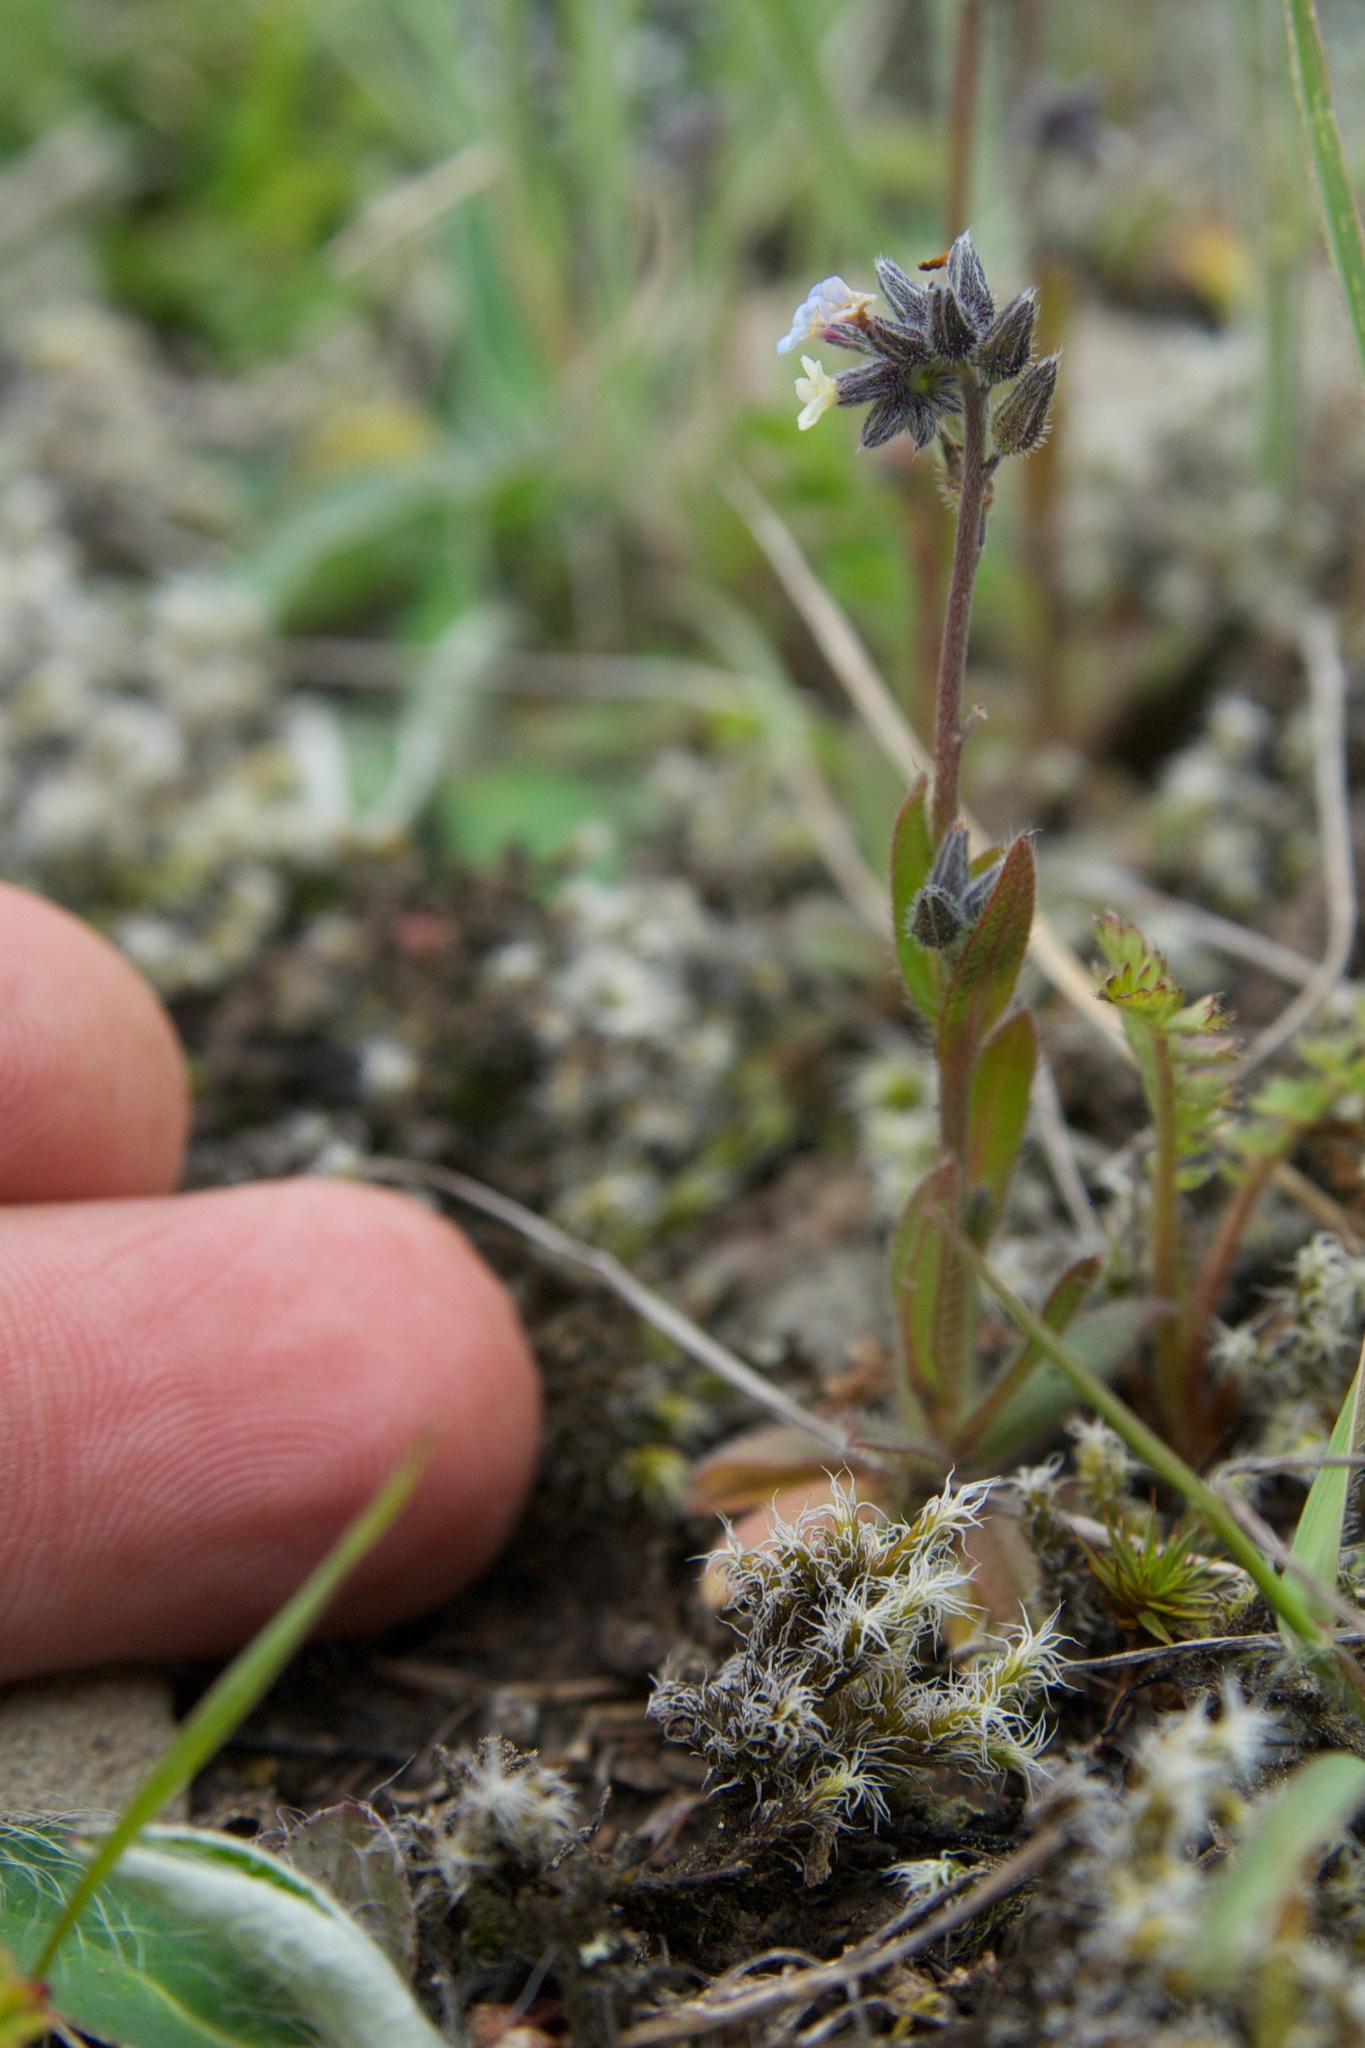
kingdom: Plantae
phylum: Tracheophyta
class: Magnoliopsida
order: Boraginales
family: Boraginaceae
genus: Myosotis
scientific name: Myosotis discolor
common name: Changing forget-me-not
